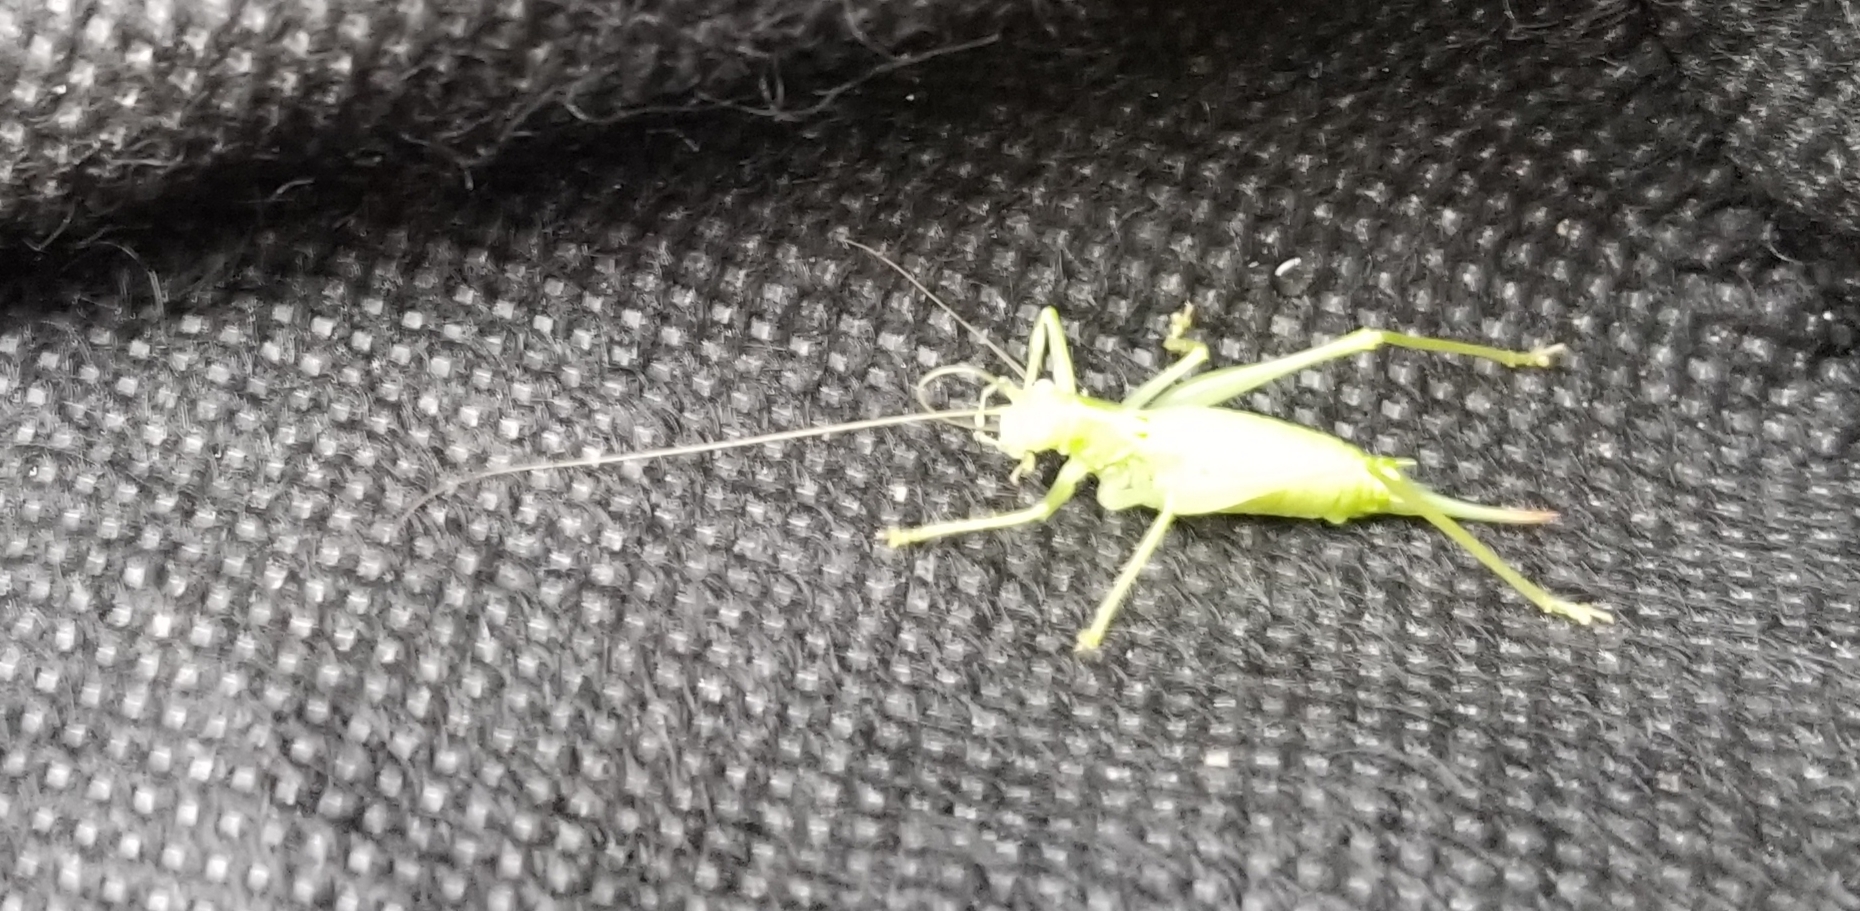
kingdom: Animalia
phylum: Arthropoda
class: Insecta
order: Orthoptera
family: Tettigoniidae
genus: Meconema
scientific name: Meconema meridionale
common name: Southern oak bush-cricket
